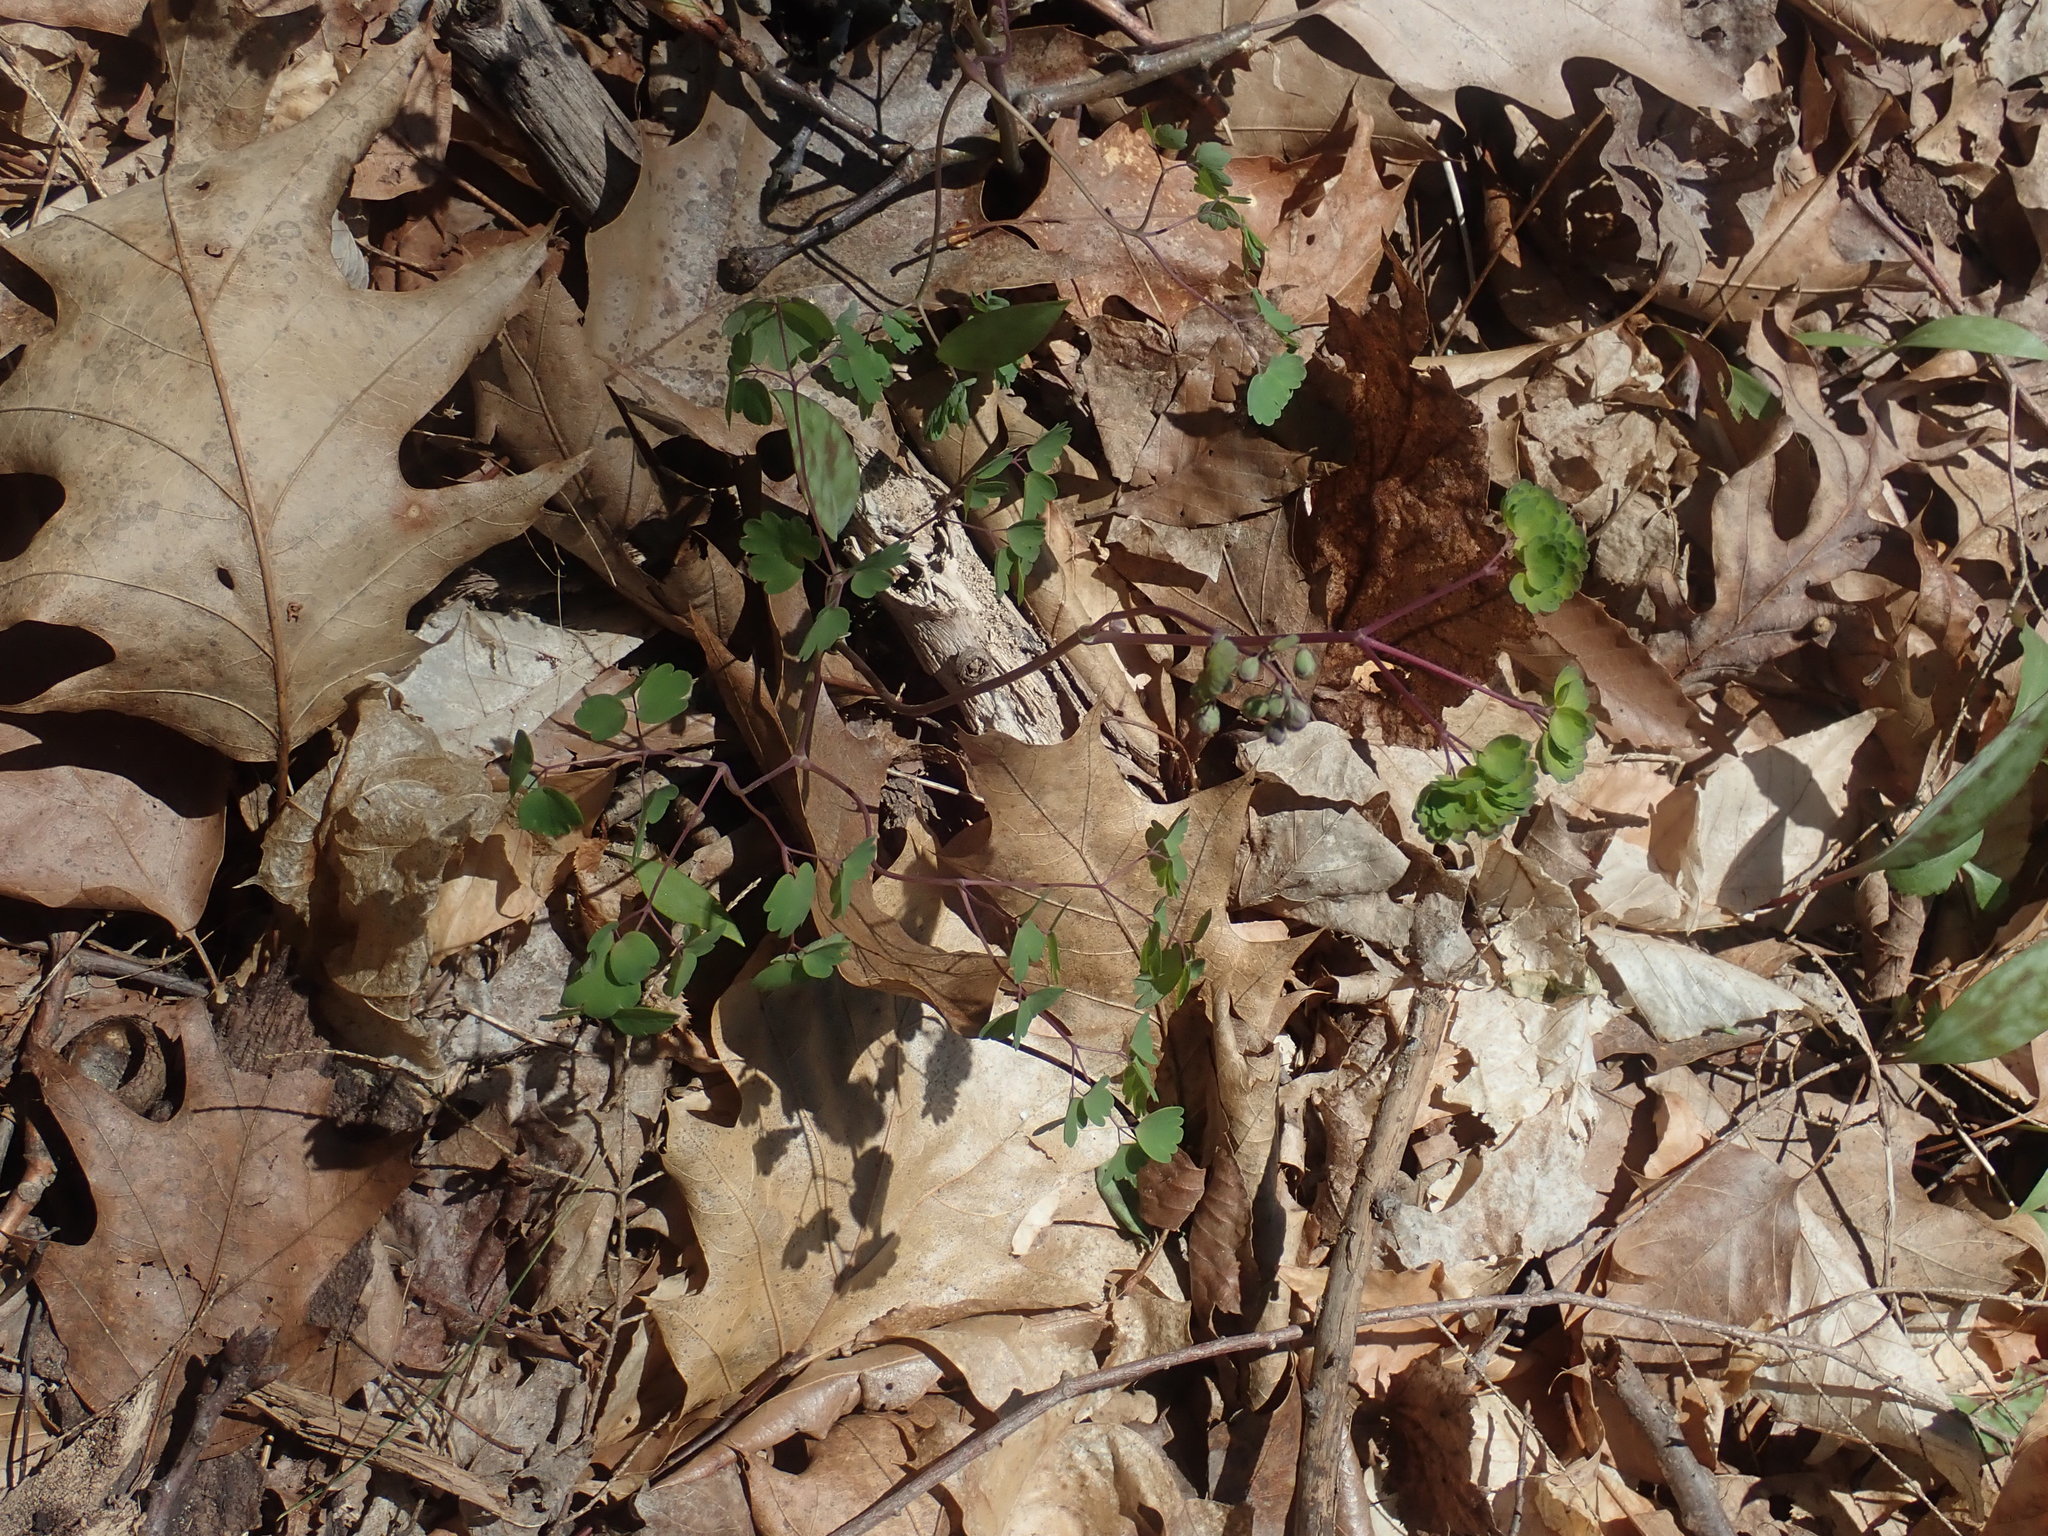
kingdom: Plantae
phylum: Tracheophyta
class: Magnoliopsida
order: Ranunculales
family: Ranunculaceae
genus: Thalictrum
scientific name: Thalictrum dioicum
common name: Early meadow-rue
